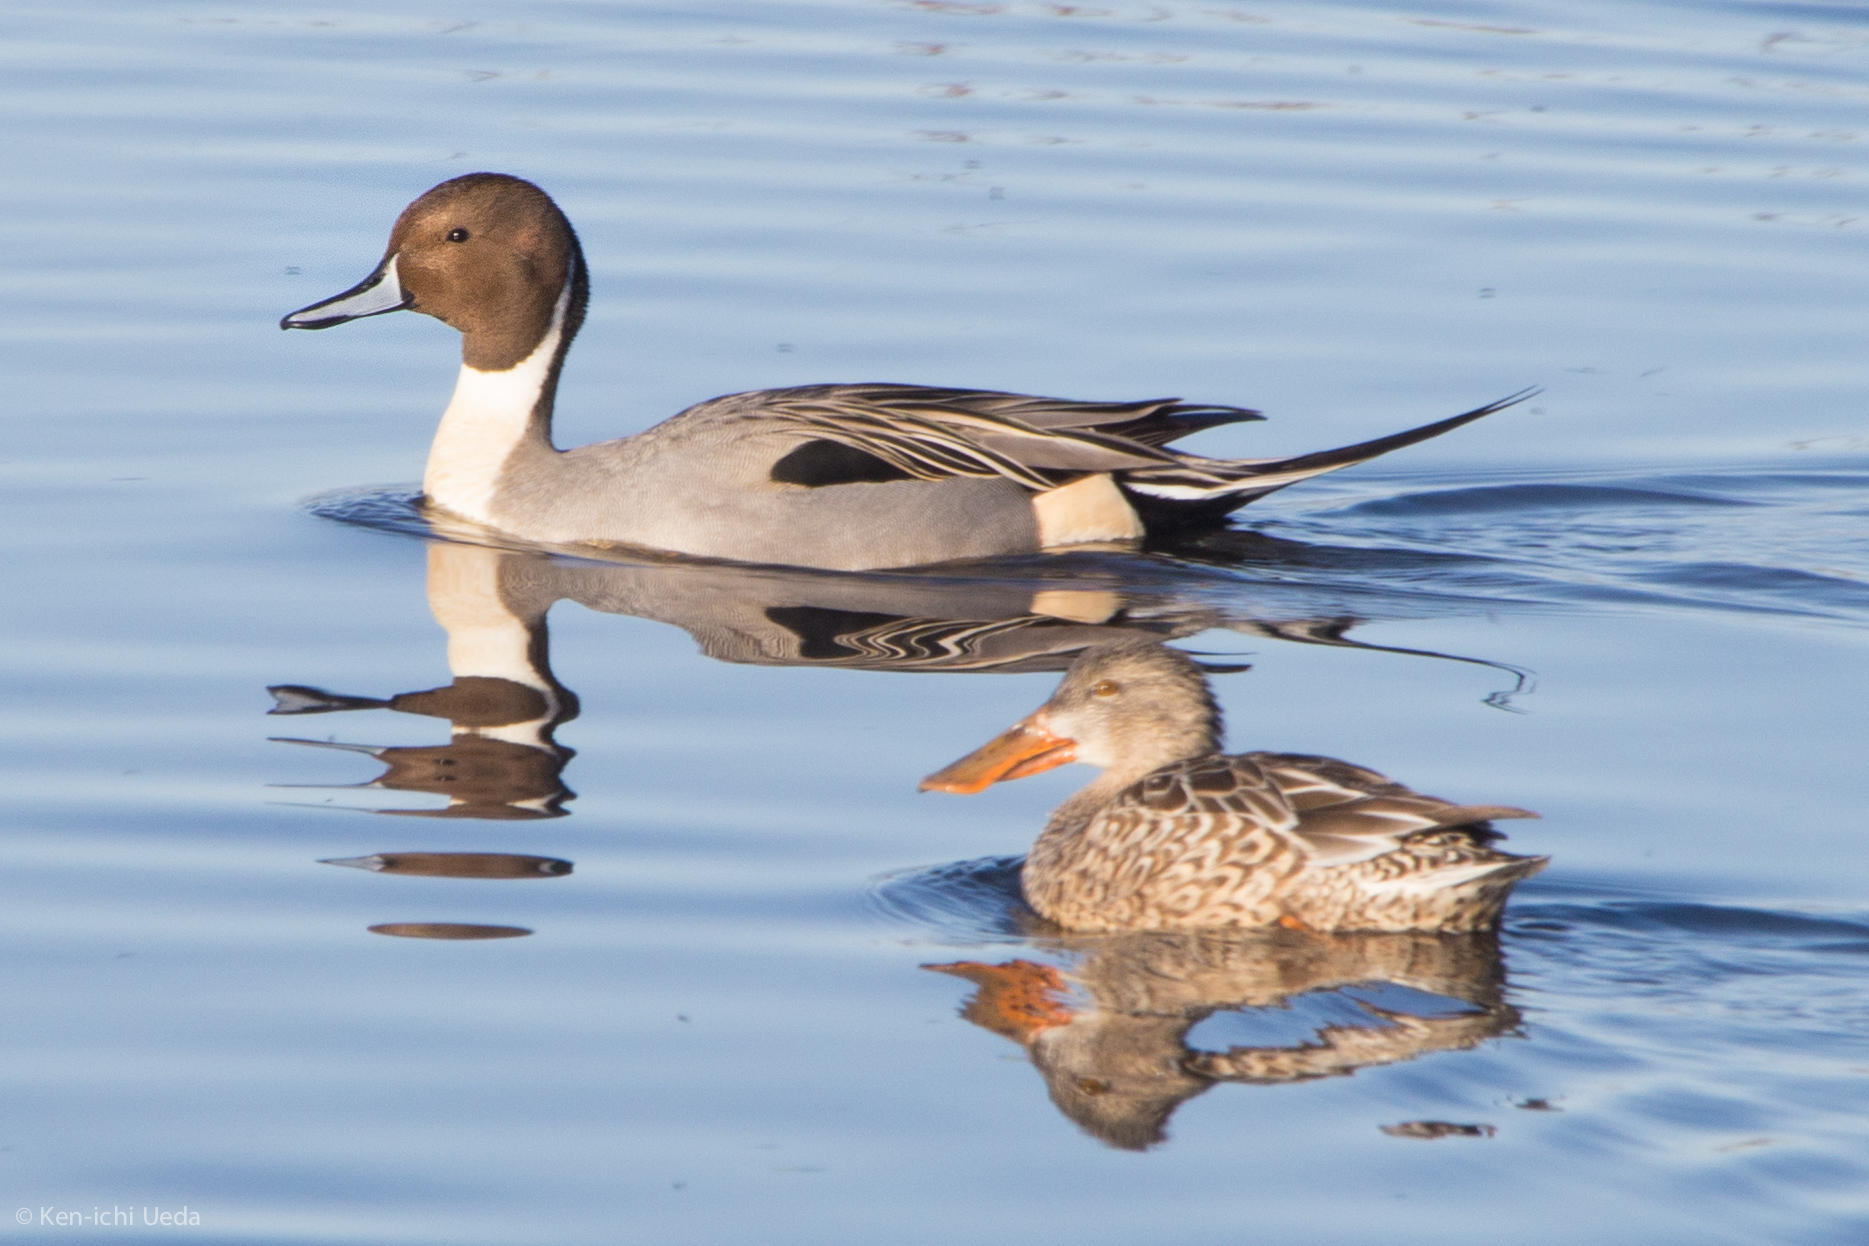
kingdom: Animalia
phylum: Chordata
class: Aves
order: Anseriformes
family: Anatidae
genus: Anas
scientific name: Anas acuta
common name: Northern pintail
